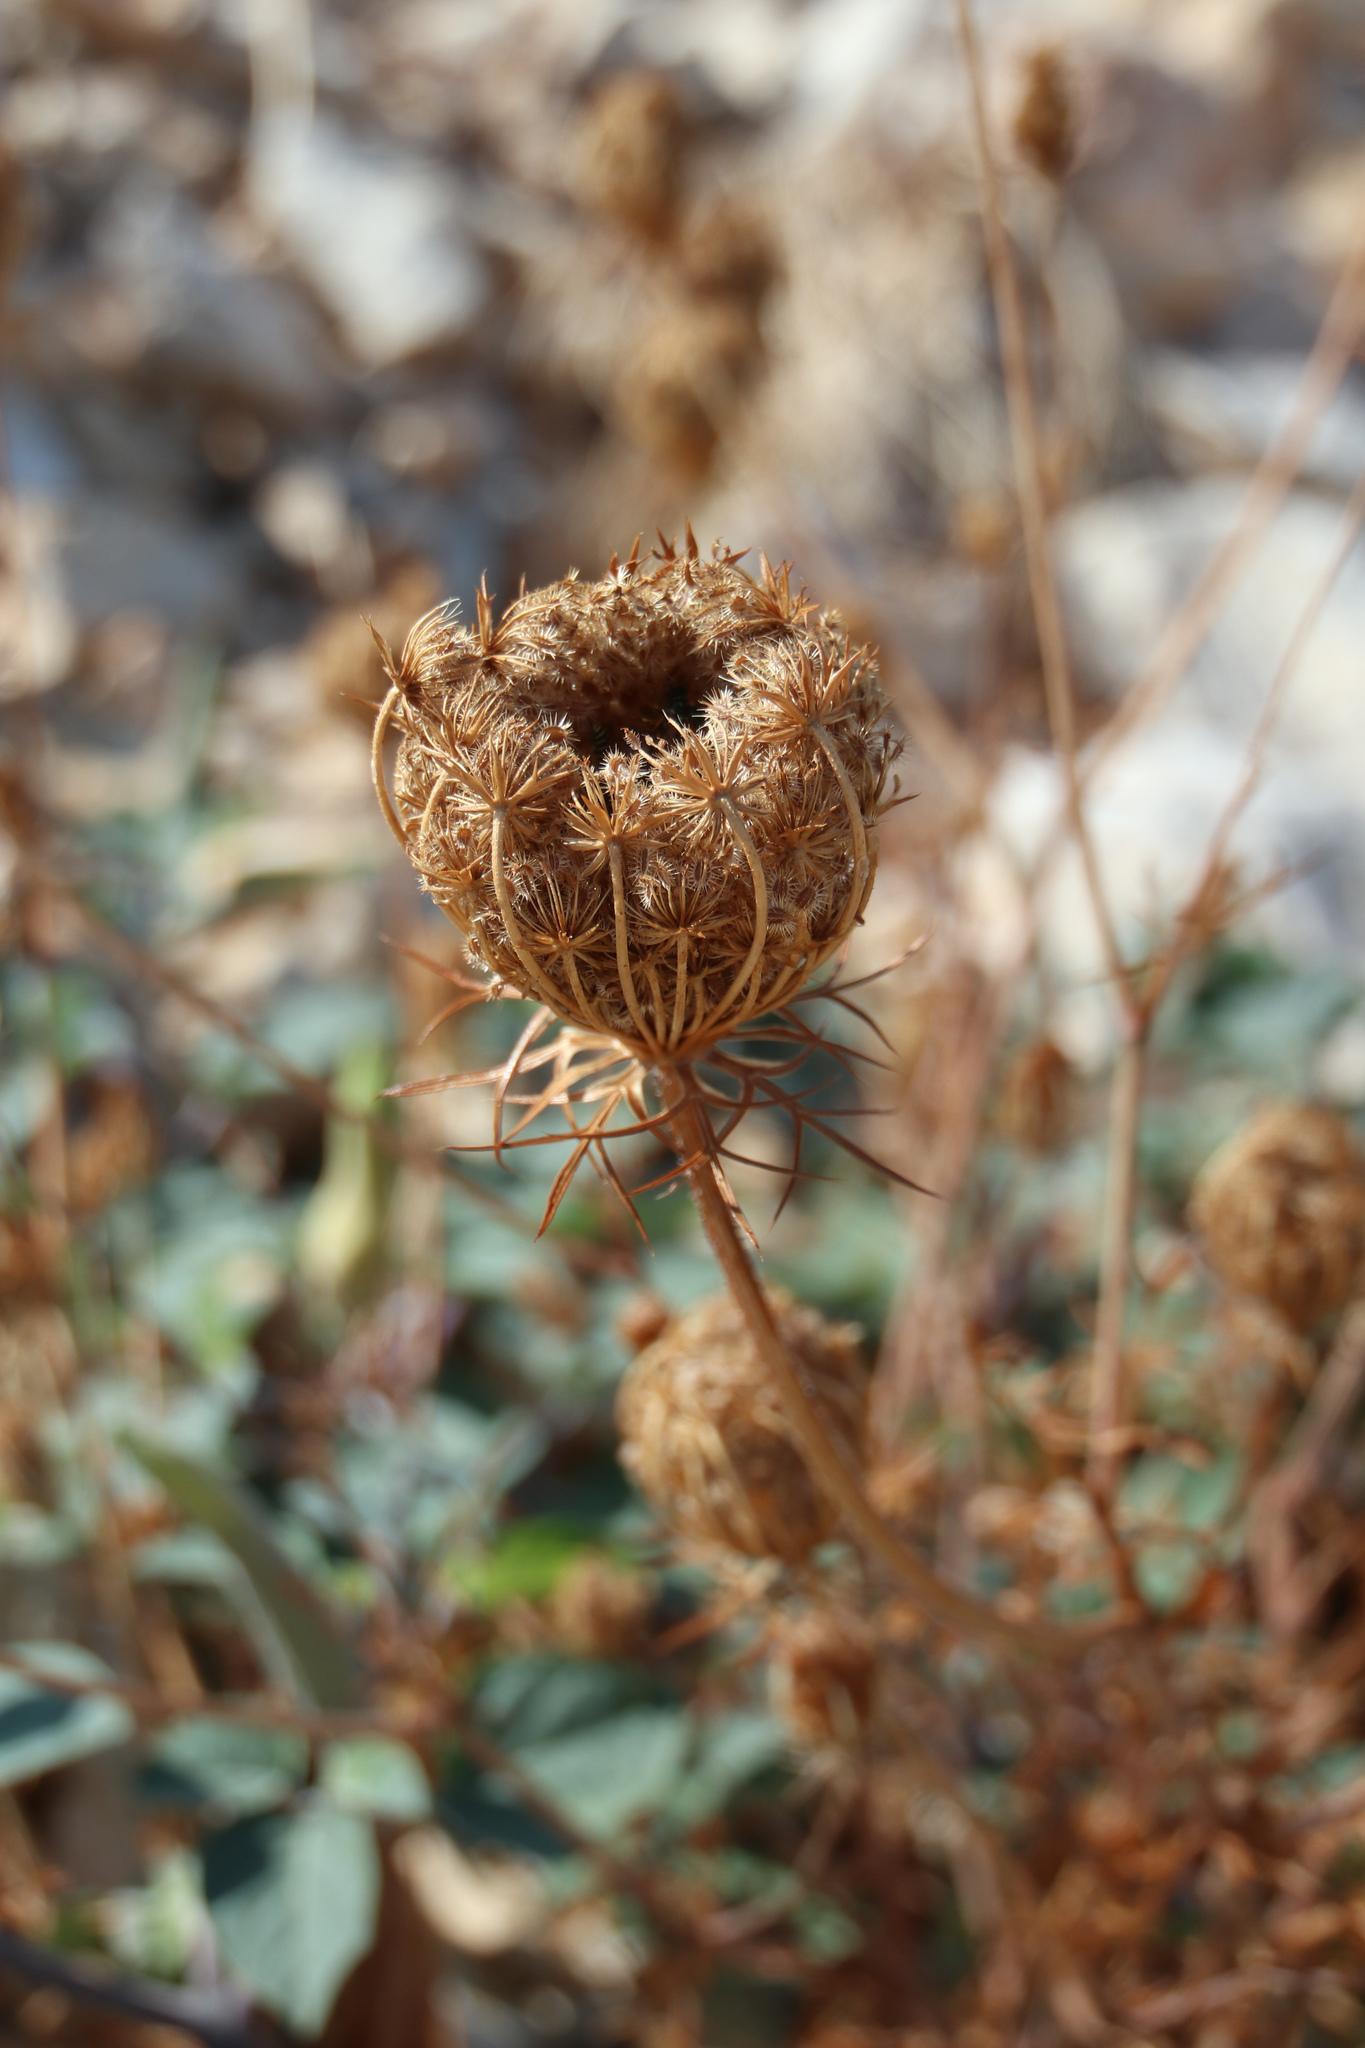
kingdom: Plantae
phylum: Tracheophyta
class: Magnoliopsida
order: Apiales
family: Apiaceae
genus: Daucus
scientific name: Daucus carota
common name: Wild carrot
